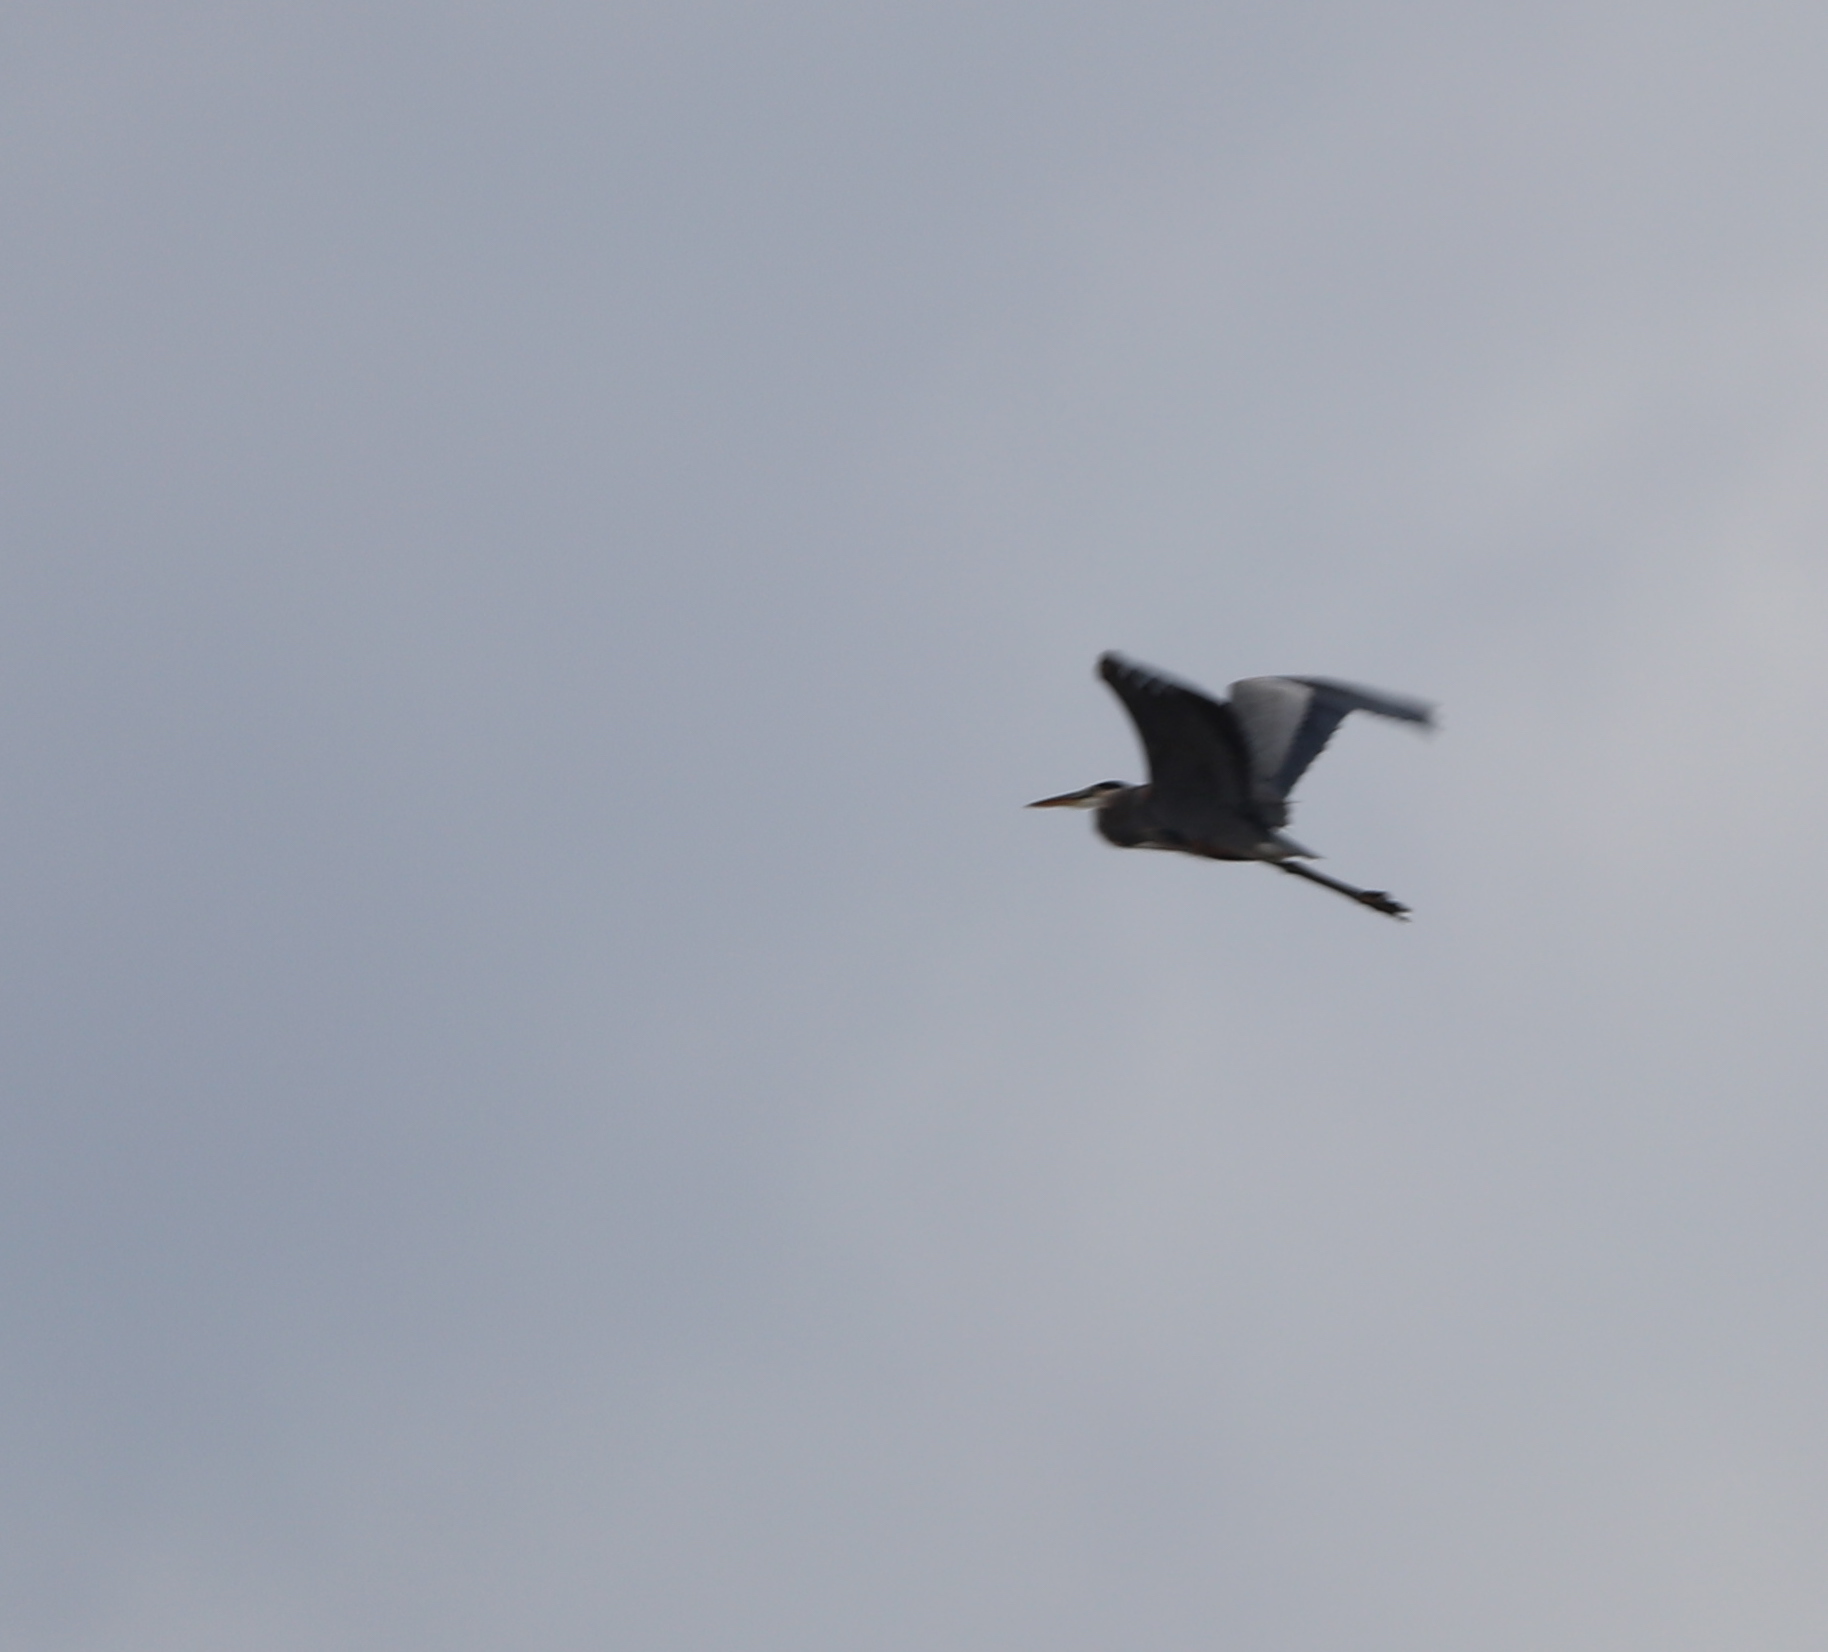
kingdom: Animalia
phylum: Chordata
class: Aves
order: Pelecaniformes
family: Ardeidae
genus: Ardea
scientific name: Ardea herodias
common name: Great blue heron
